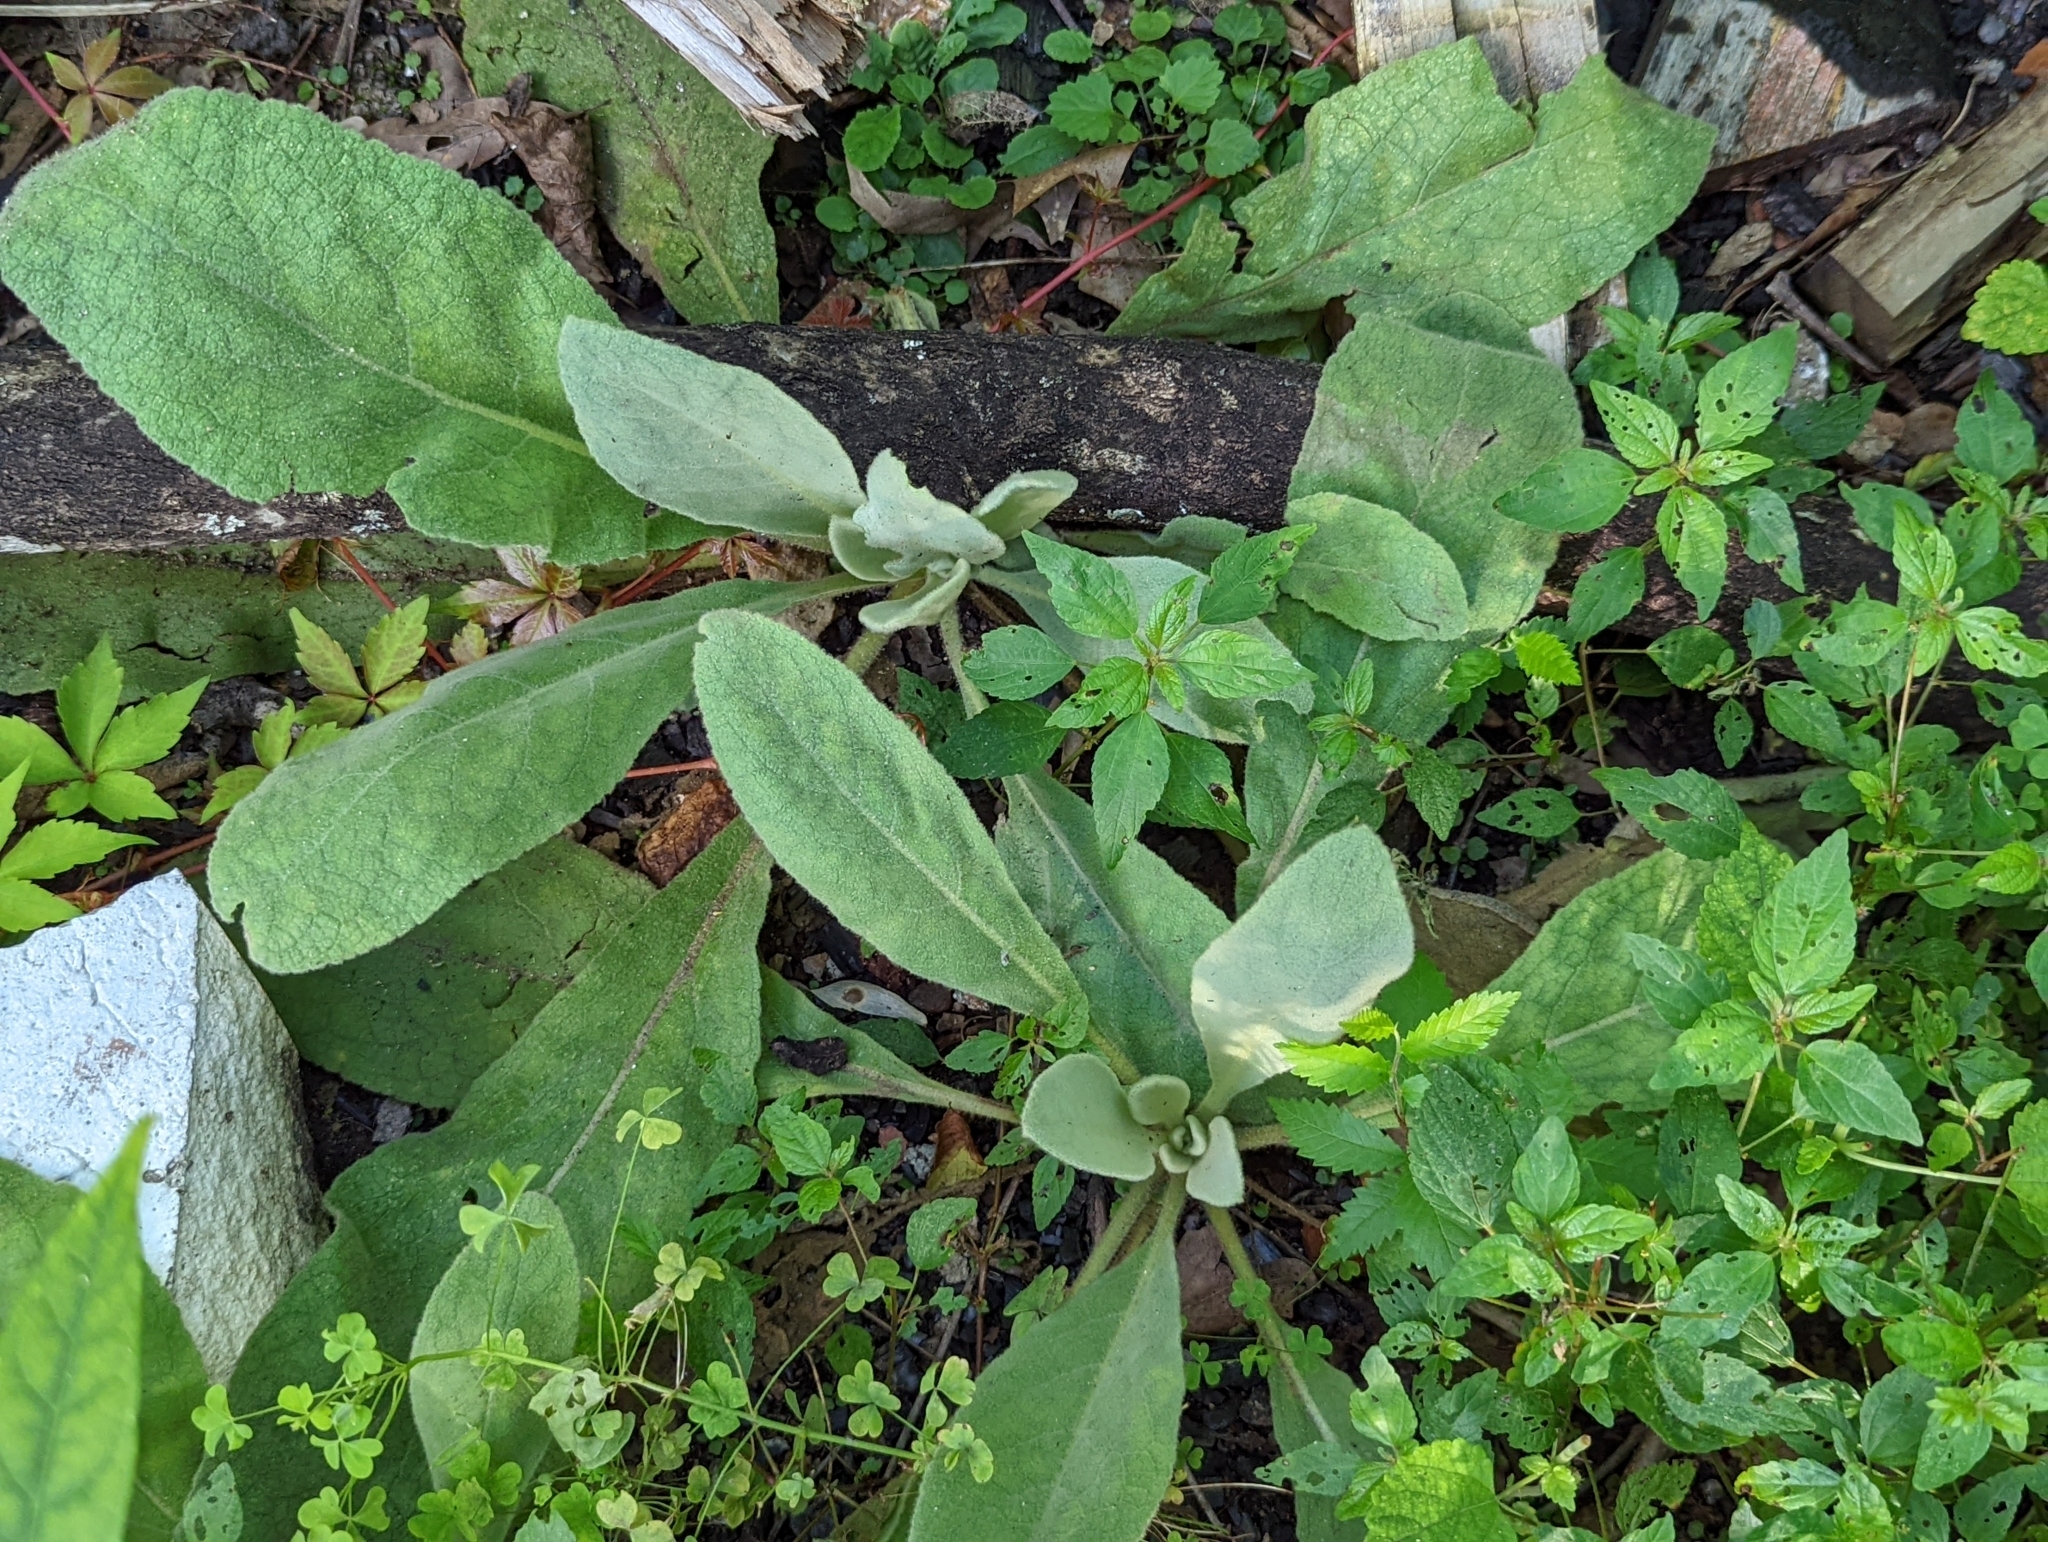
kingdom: Plantae
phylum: Tracheophyta
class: Magnoliopsida
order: Lamiales
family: Scrophulariaceae
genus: Verbascum
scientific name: Verbascum thapsus
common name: Common mullein
